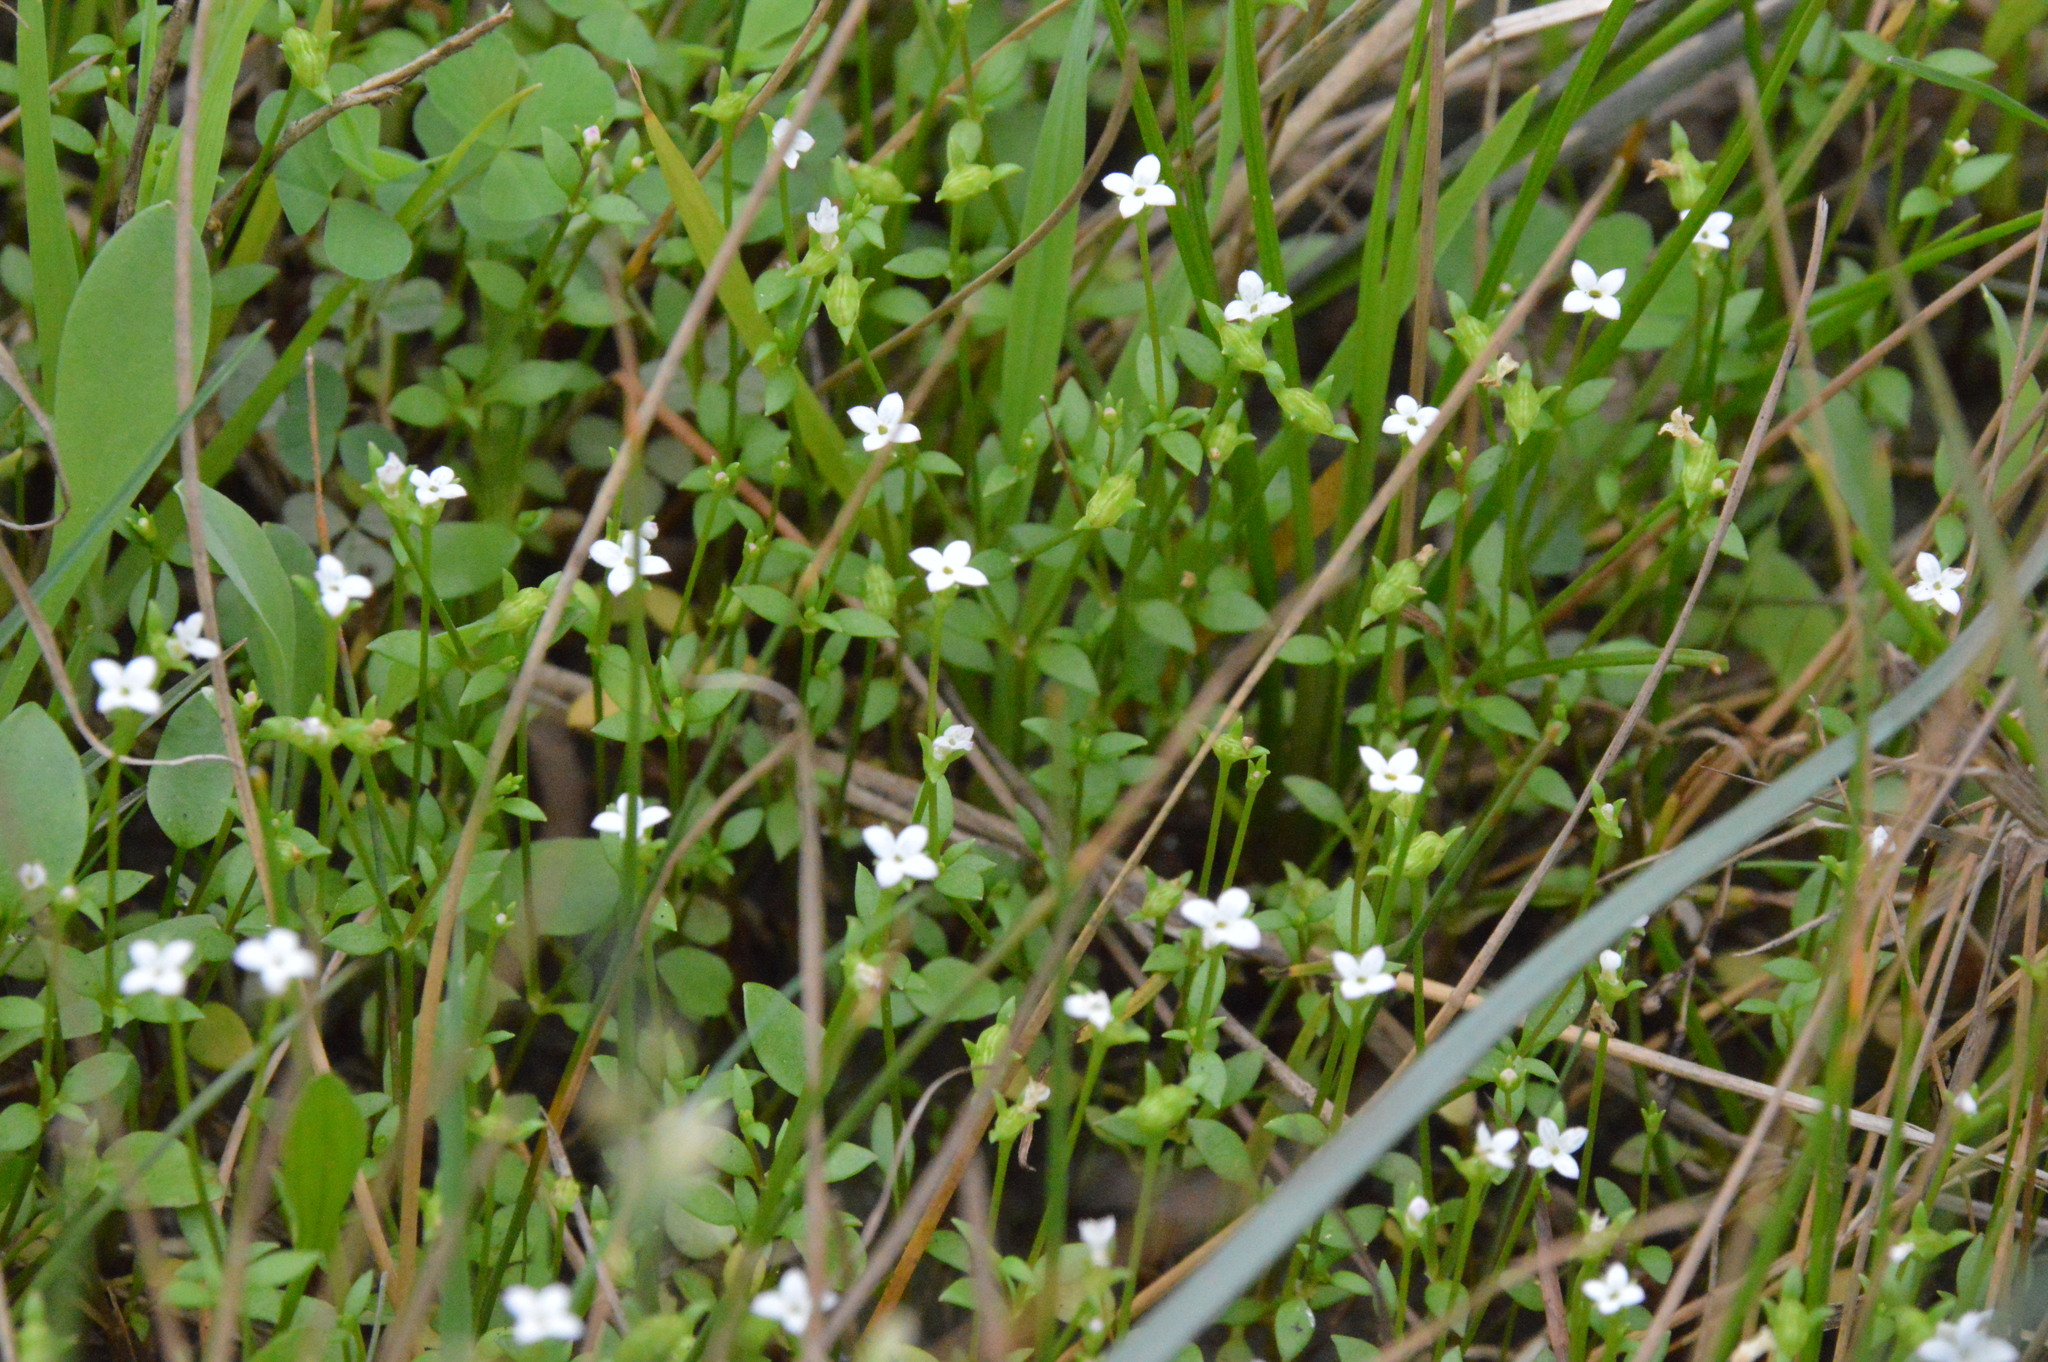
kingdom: Plantae
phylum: Tracheophyta
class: Magnoliopsida
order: Gentianales
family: Rubiaceae
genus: Houstonia
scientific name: Houstonia micrantha
